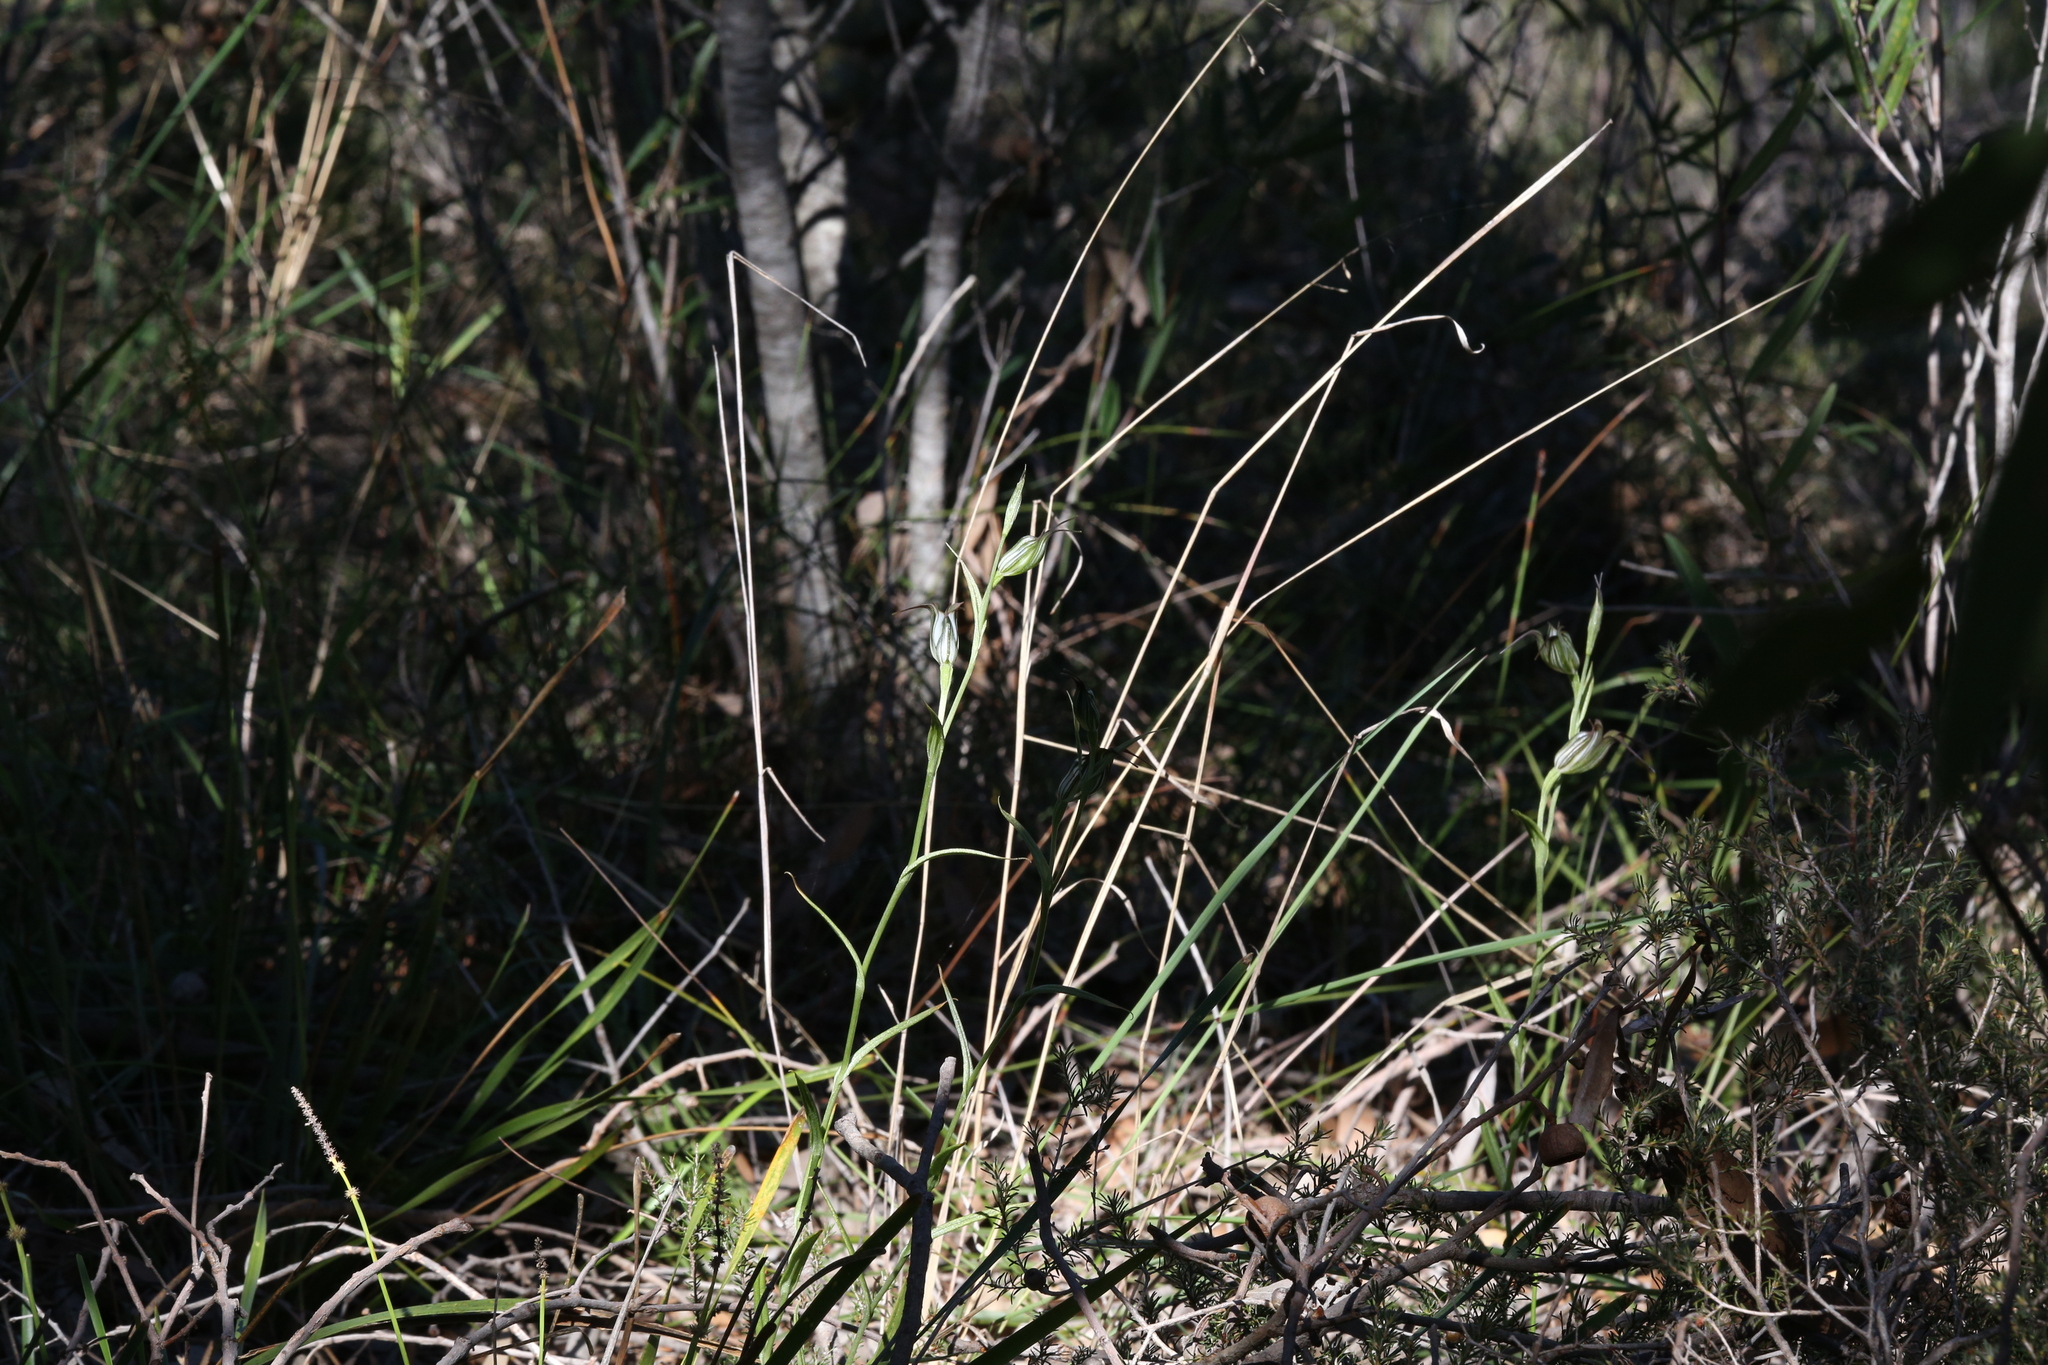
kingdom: Plantae
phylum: Tracheophyta
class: Liliopsida
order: Asparagales
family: Orchidaceae
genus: Pterostylis
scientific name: Pterostylis recurva
